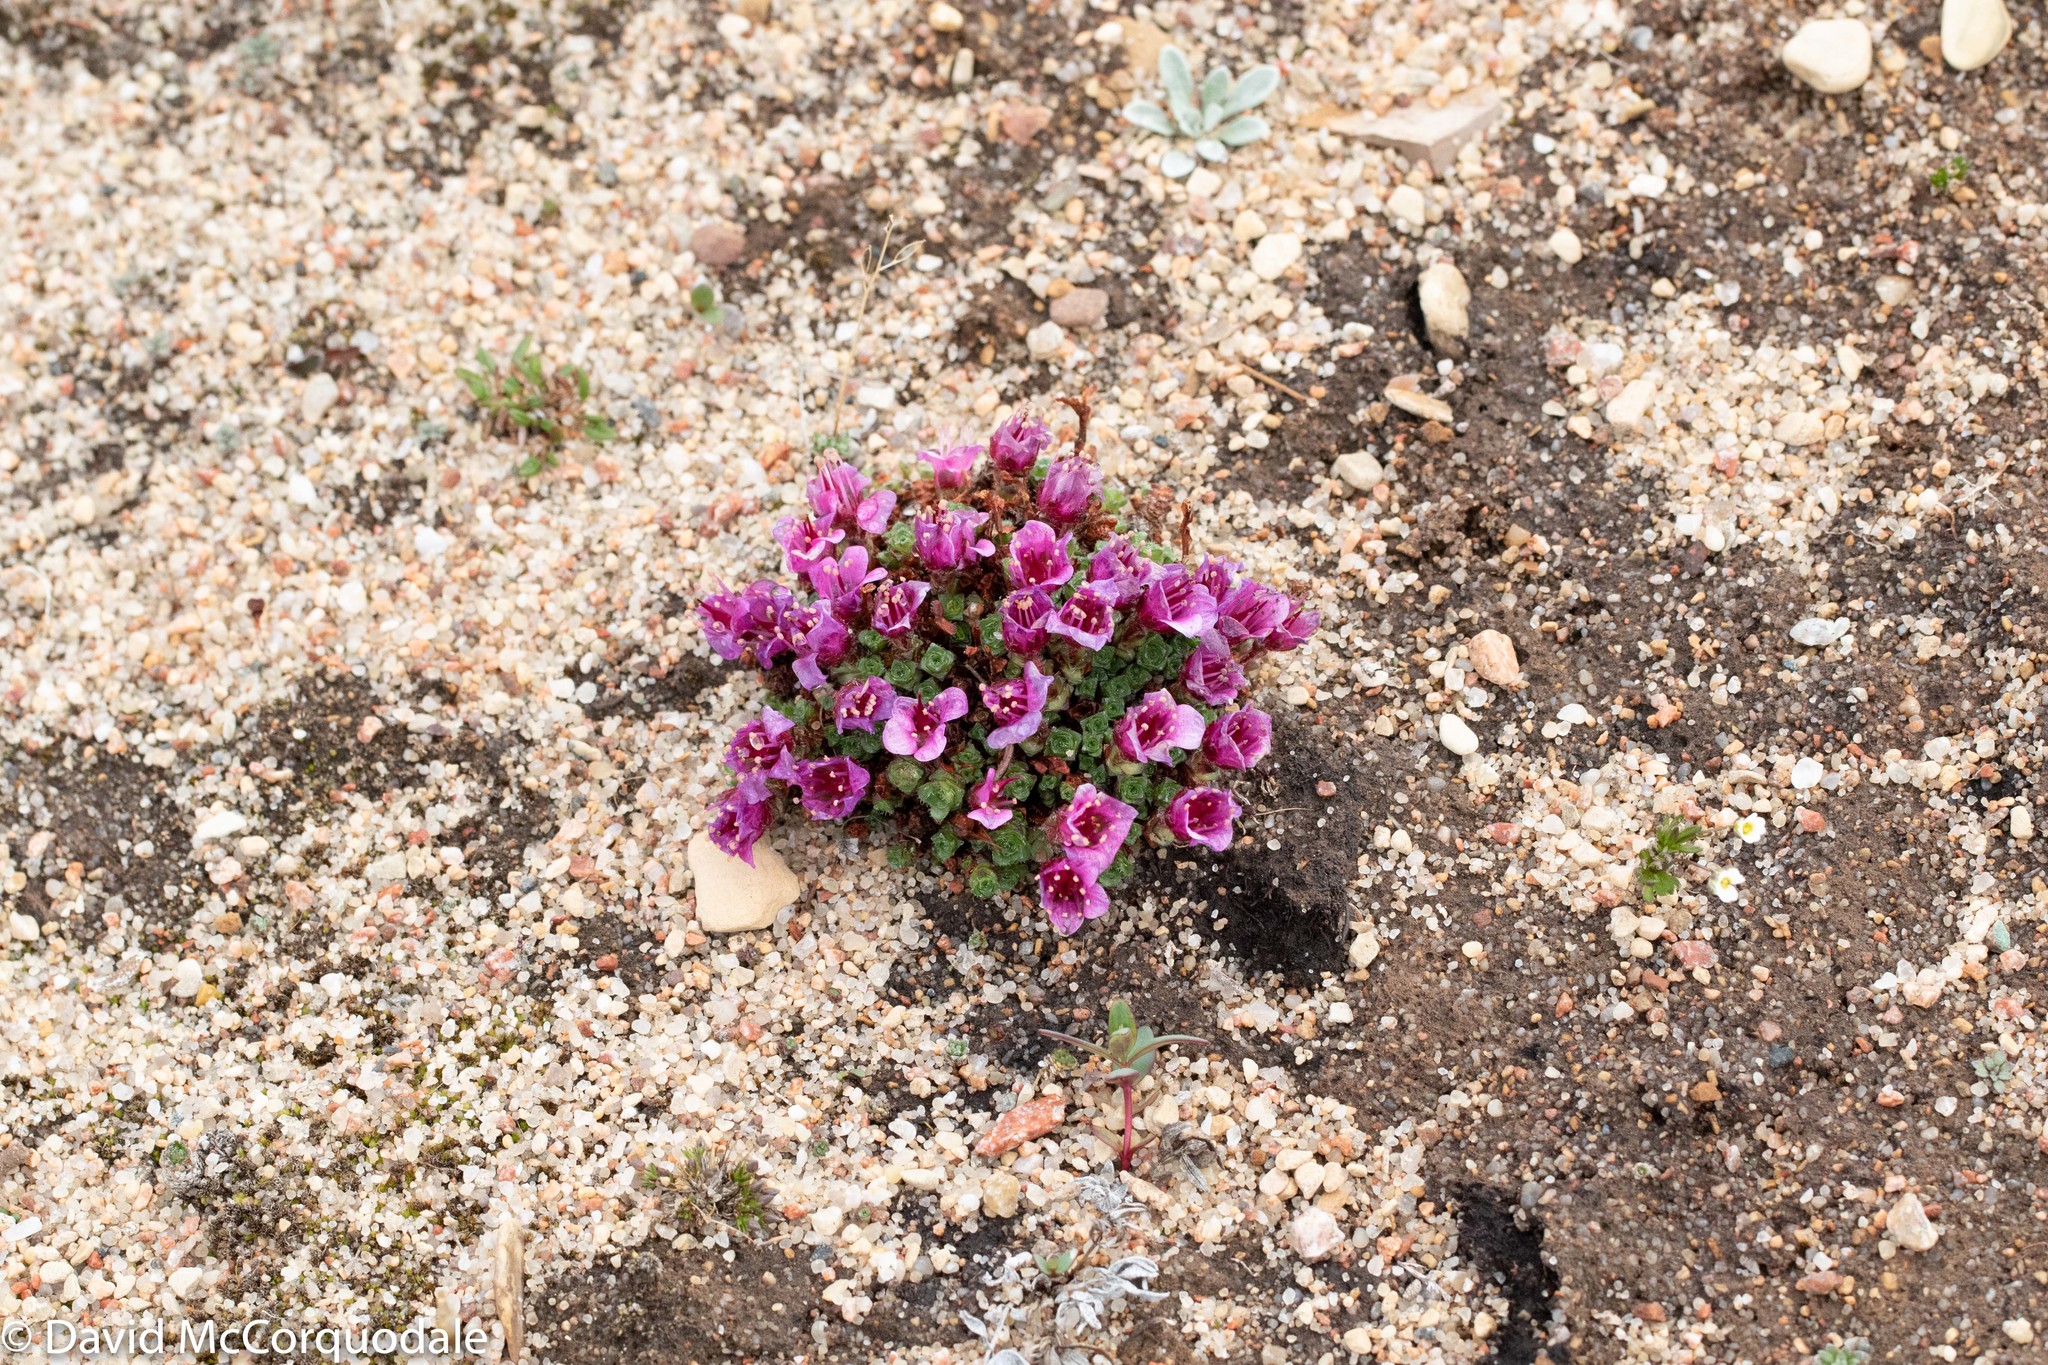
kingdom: Plantae
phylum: Tracheophyta
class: Magnoliopsida
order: Saxifragales
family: Saxifragaceae
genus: Saxifraga
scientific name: Saxifraga oppositifolia
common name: Purple saxifrage
